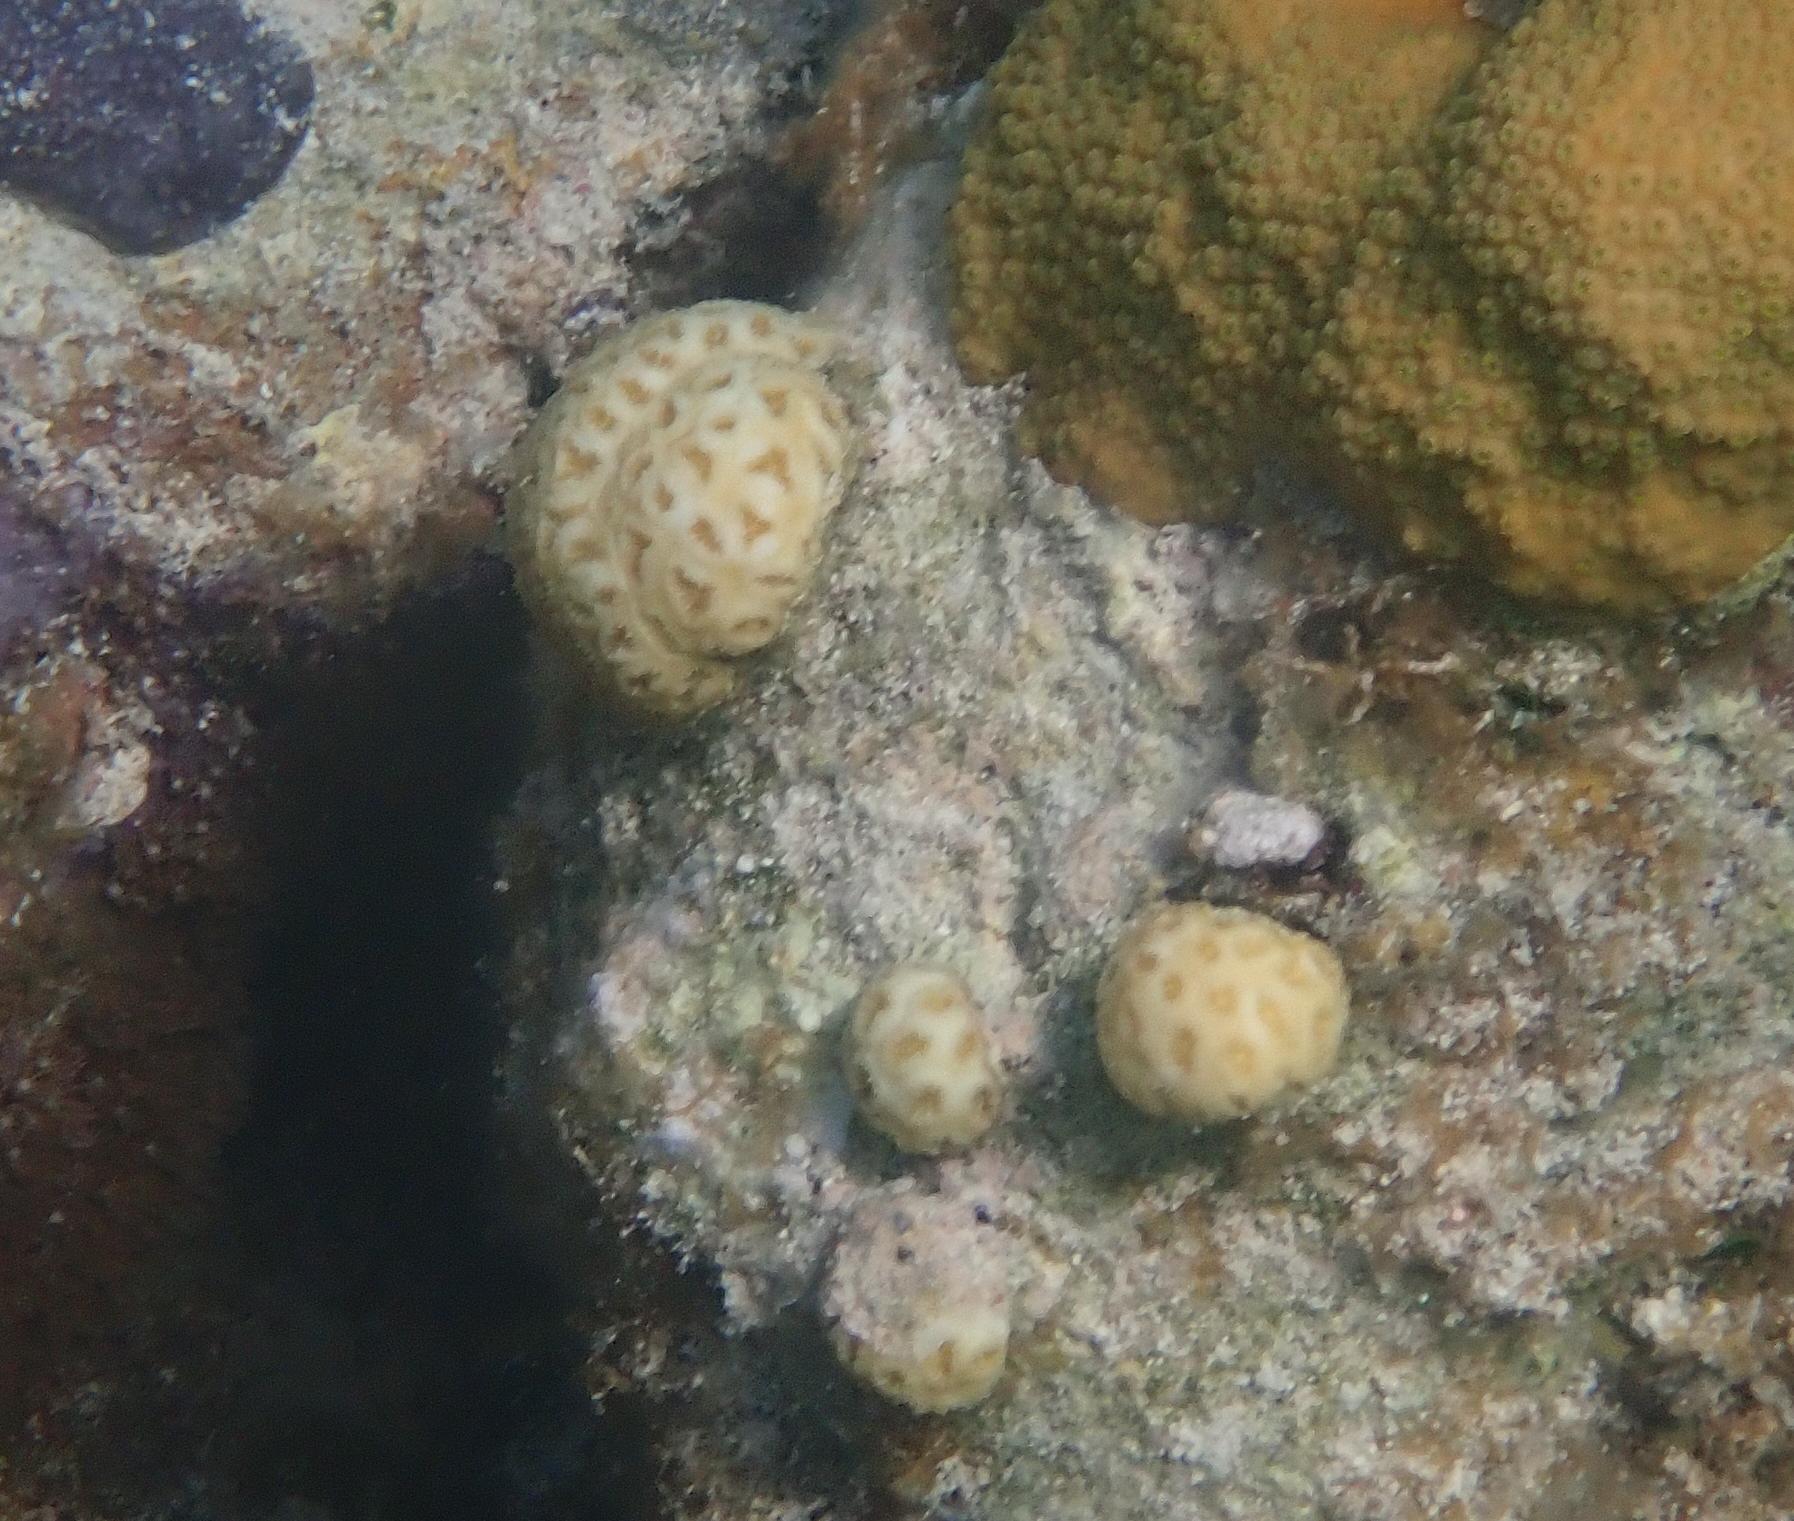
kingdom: Animalia
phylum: Cnidaria
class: Anthozoa
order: Scleractinia
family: Faviidae
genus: Favia
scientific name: Favia fragum
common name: Golfball coral
